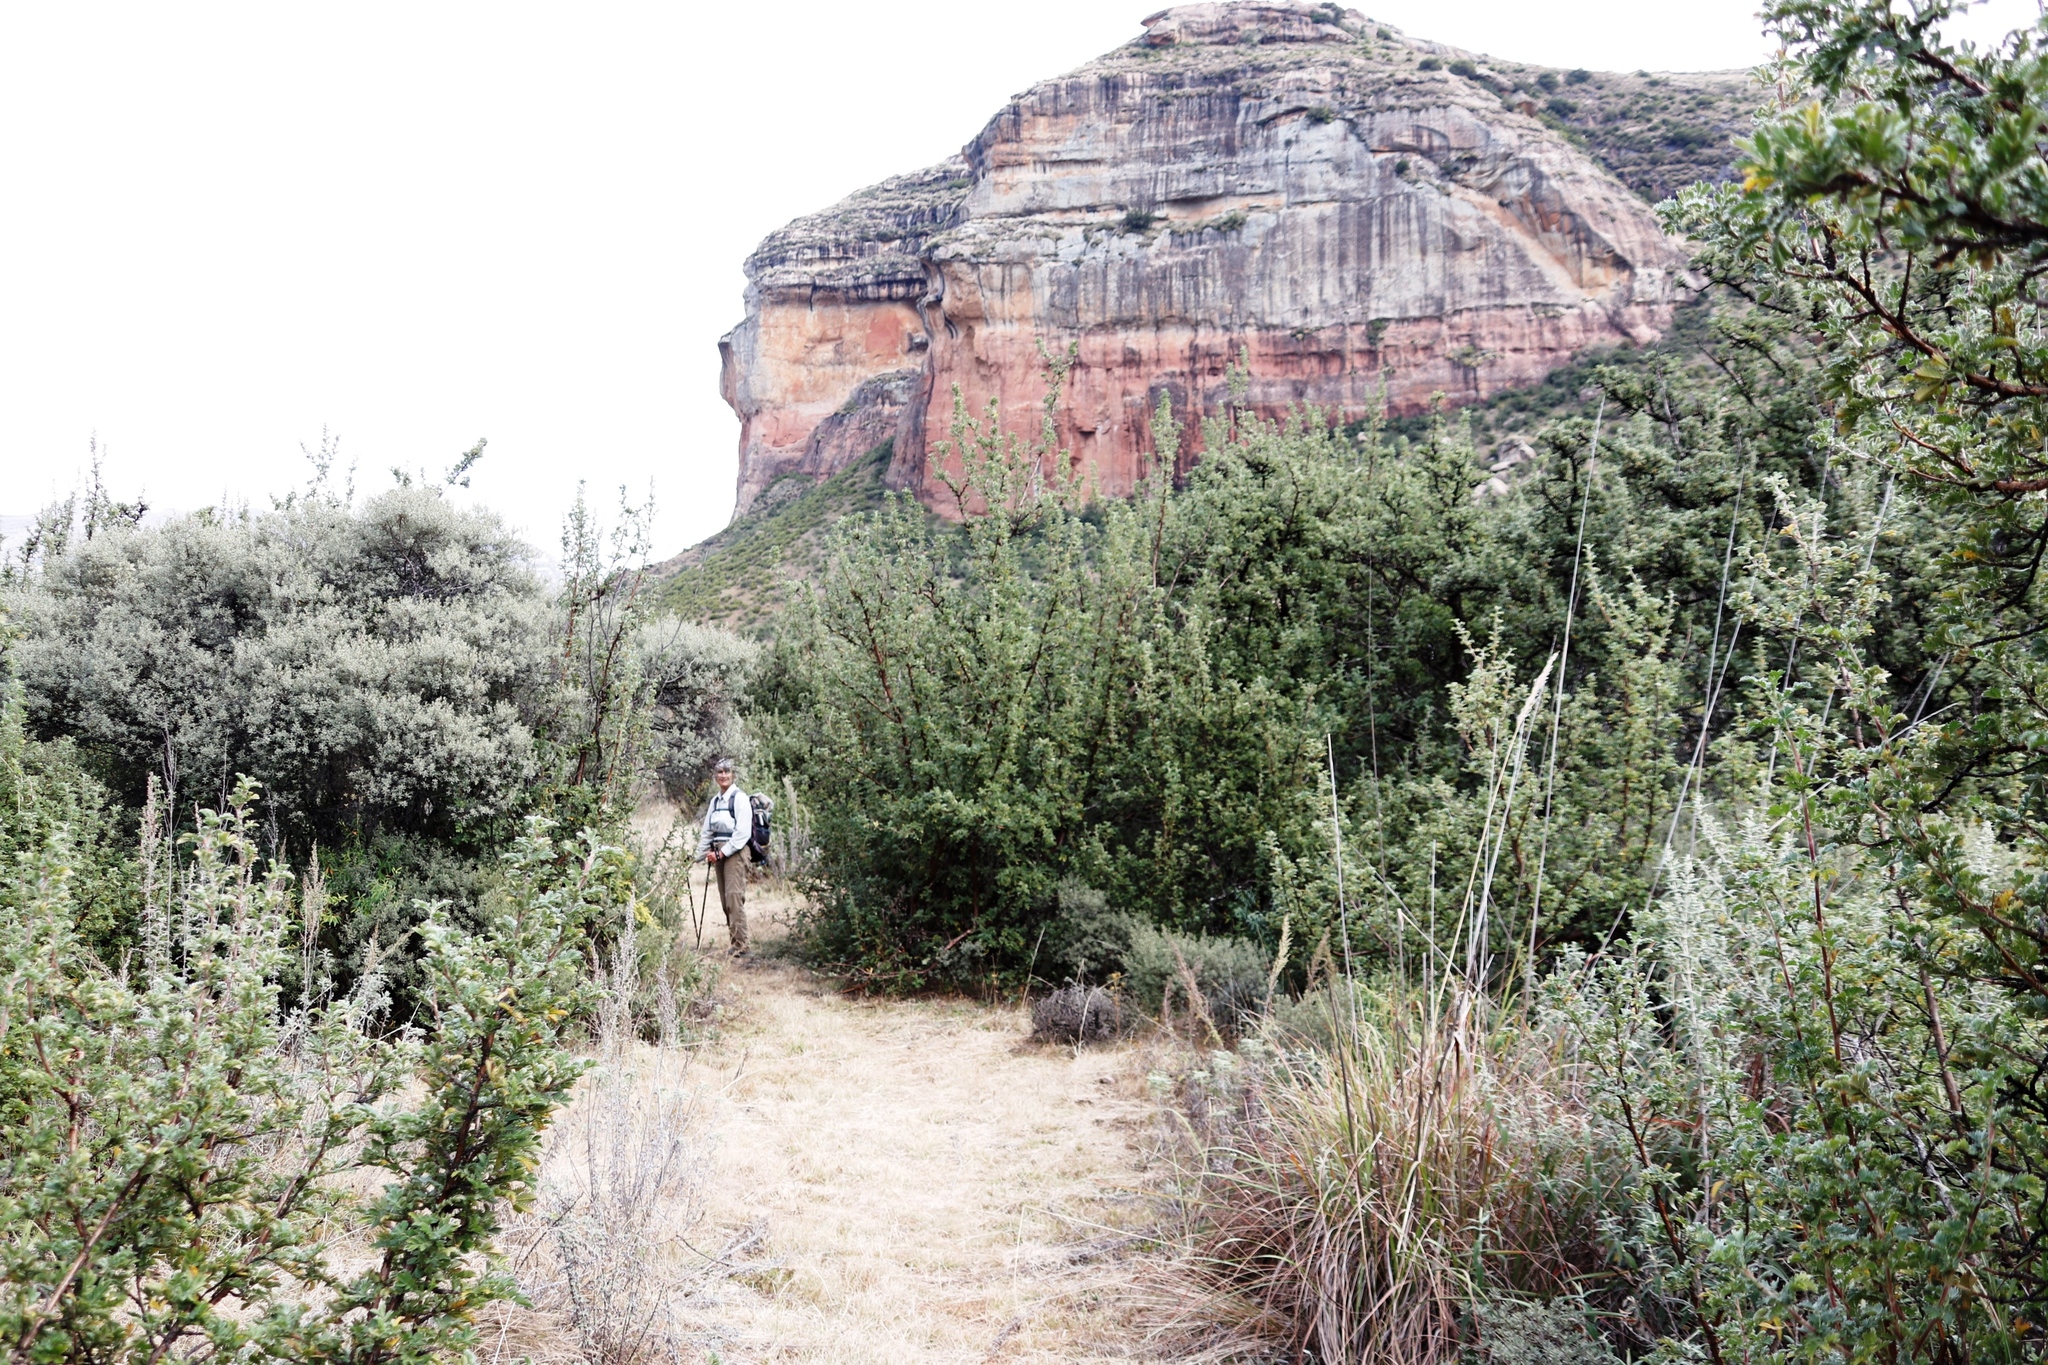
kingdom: Plantae
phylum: Tracheophyta
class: Magnoliopsida
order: Rosales
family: Rosaceae
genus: Leucosidea
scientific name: Leucosidea sericea
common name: Oldwood
